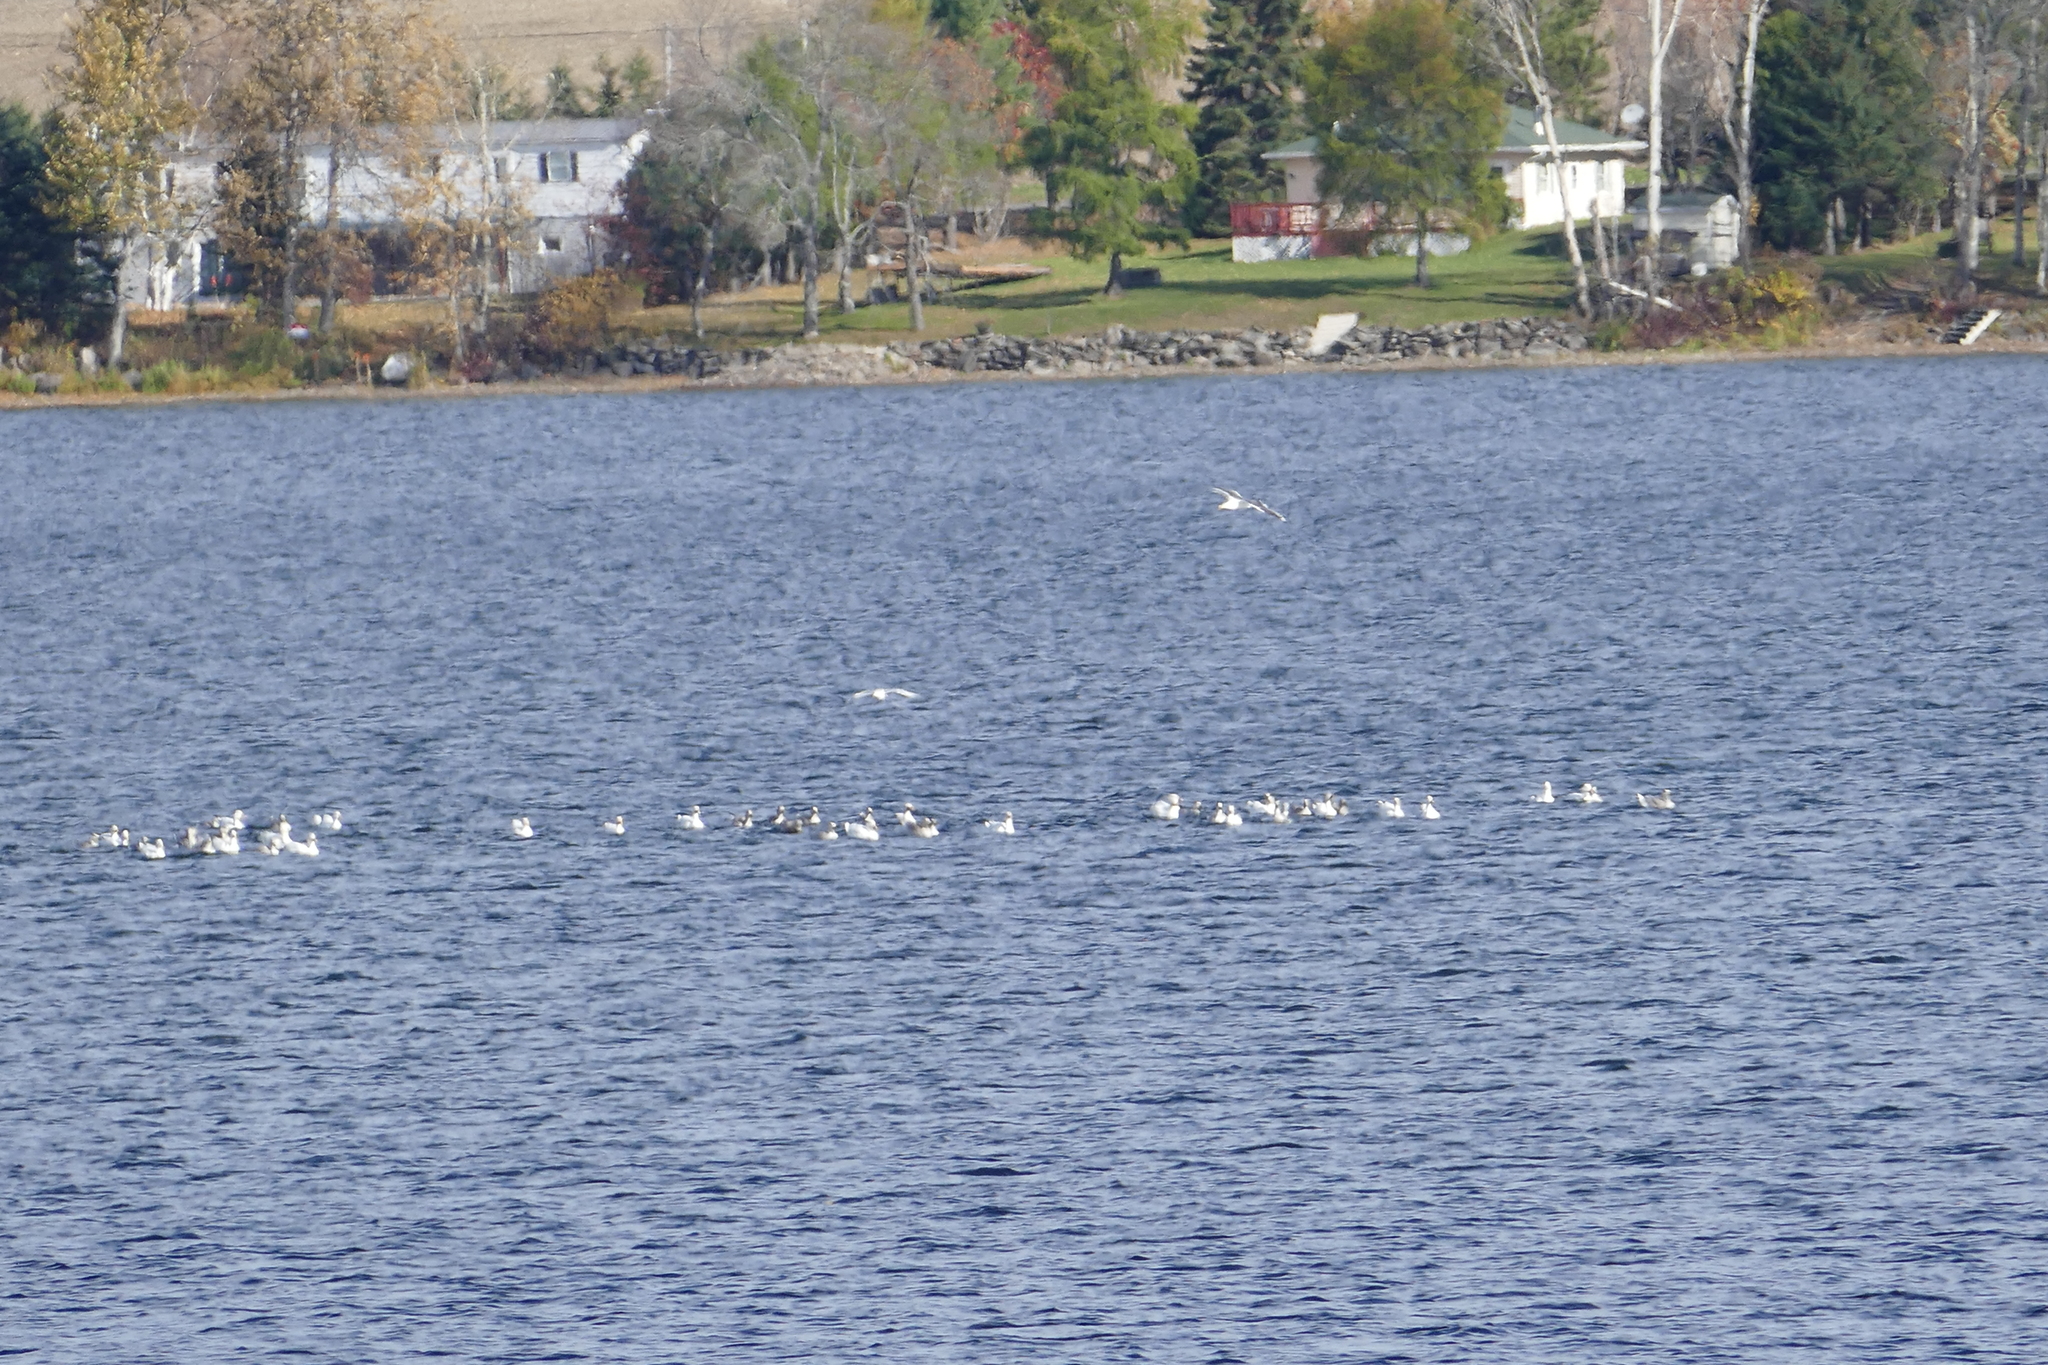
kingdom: Animalia
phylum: Chordata
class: Aves
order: Anseriformes
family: Anatidae
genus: Anser
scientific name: Anser caerulescens
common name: Snow goose
